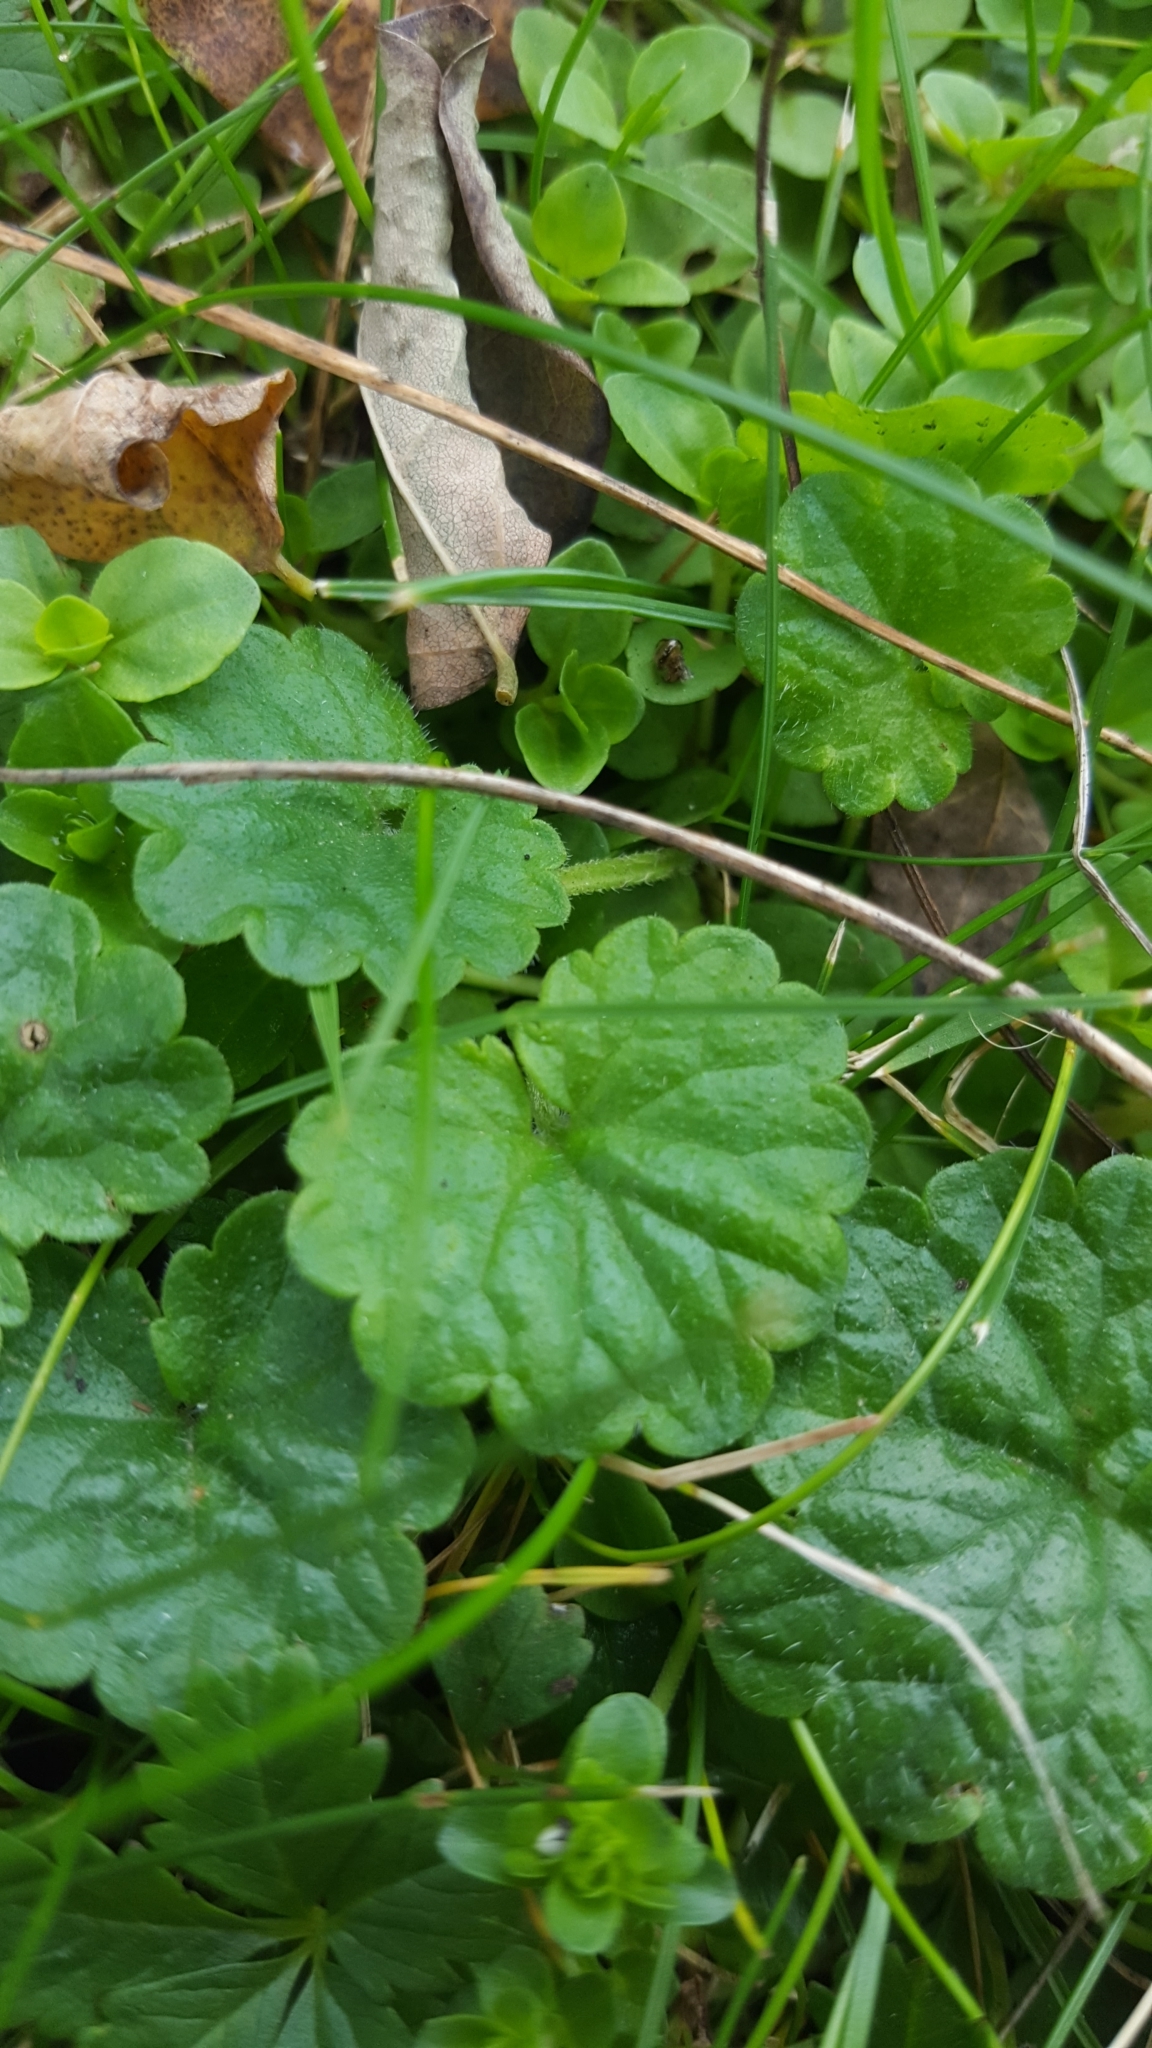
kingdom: Plantae
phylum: Tracheophyta
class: Magnoliopsida
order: Lamiales
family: Lamiaceae
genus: Glechoma
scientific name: Glechoma hederacea
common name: Ground ivy
